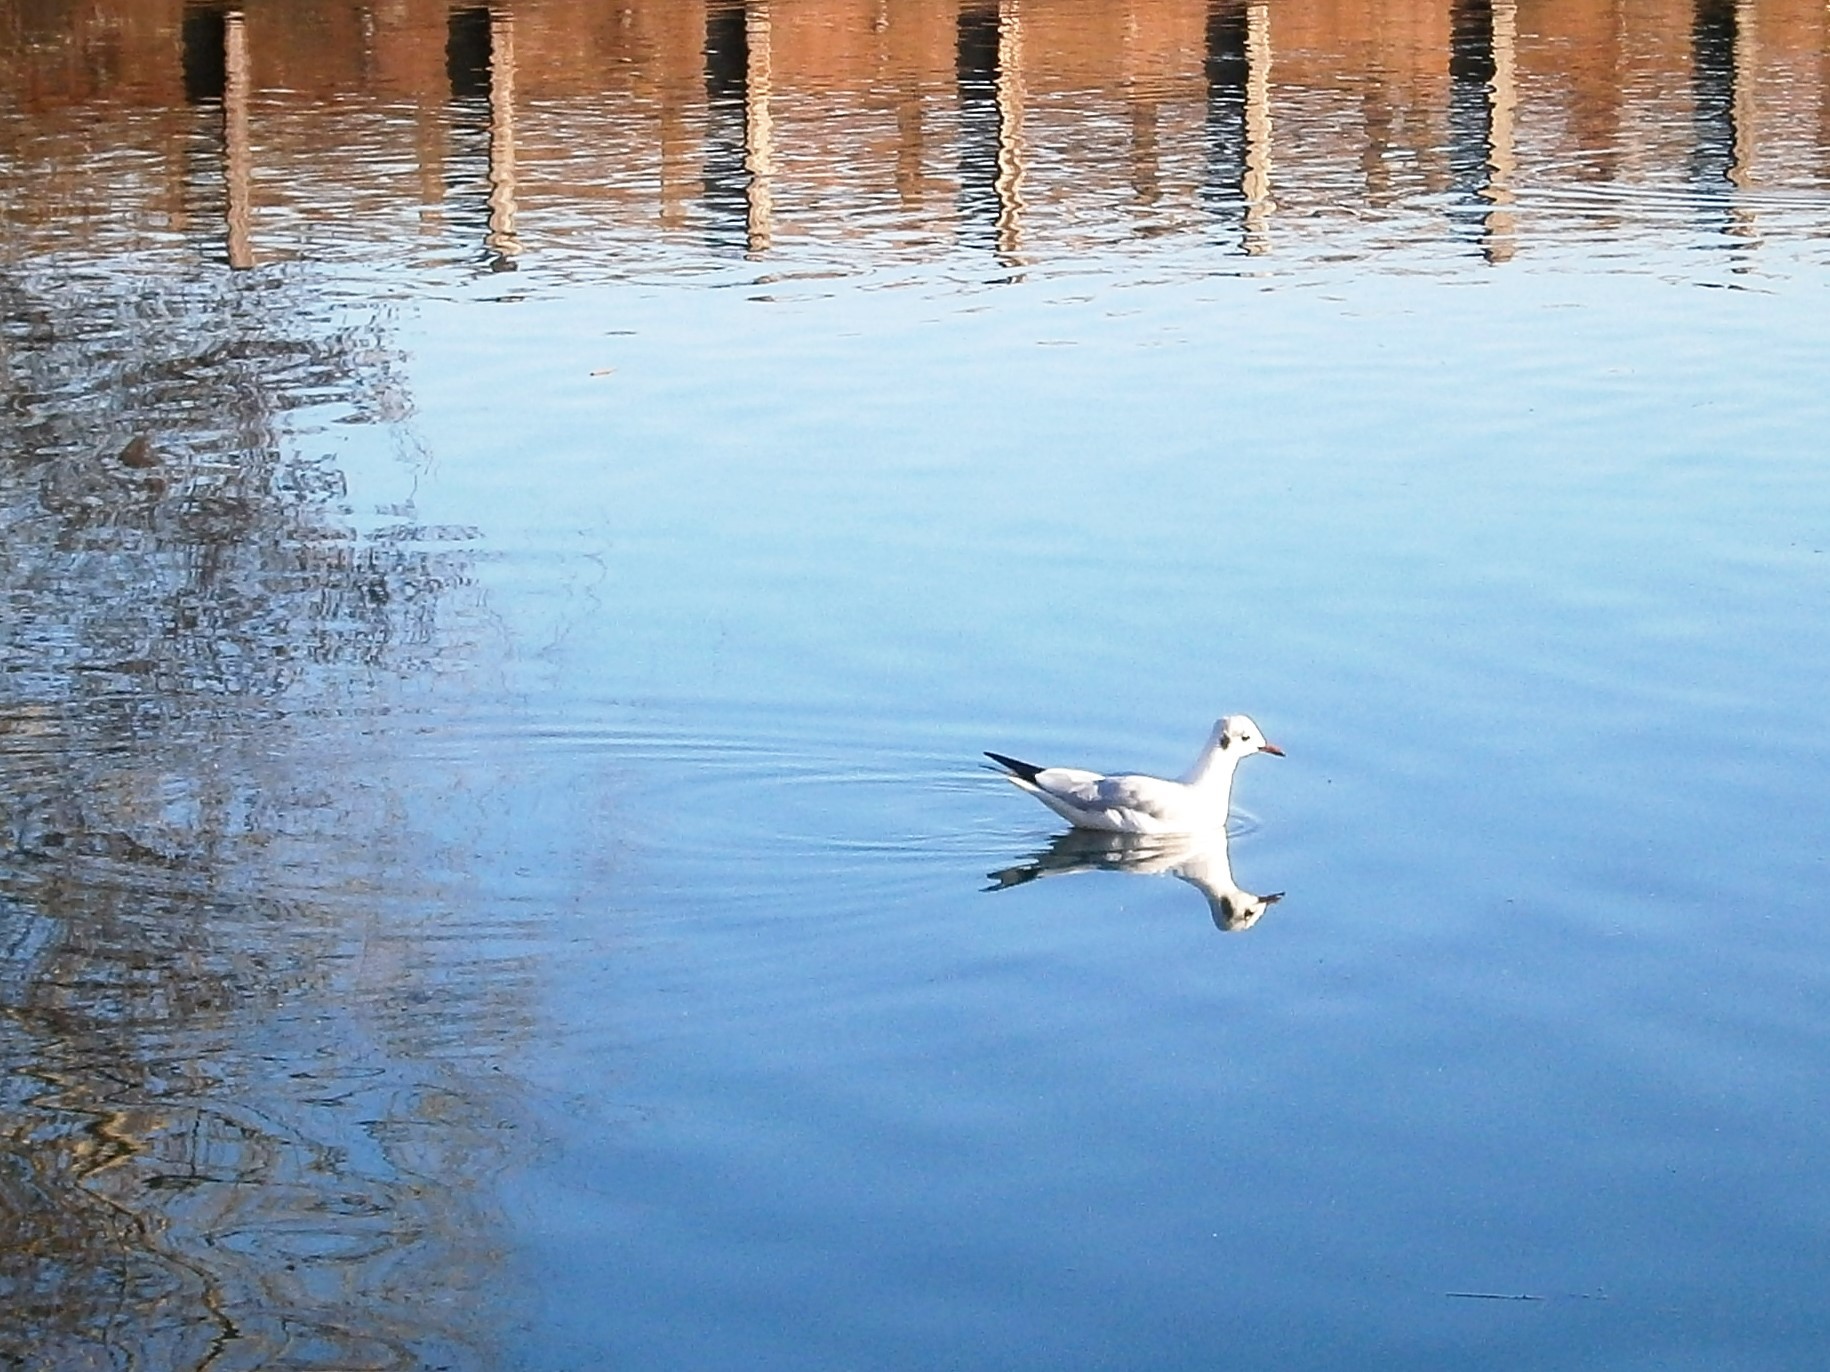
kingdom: Animalia
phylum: Chordata
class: Aves
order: Charadriiformes
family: Laridae
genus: Chroicocephalus
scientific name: Chroicocephalus ridibundus
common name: Black-headed gull
